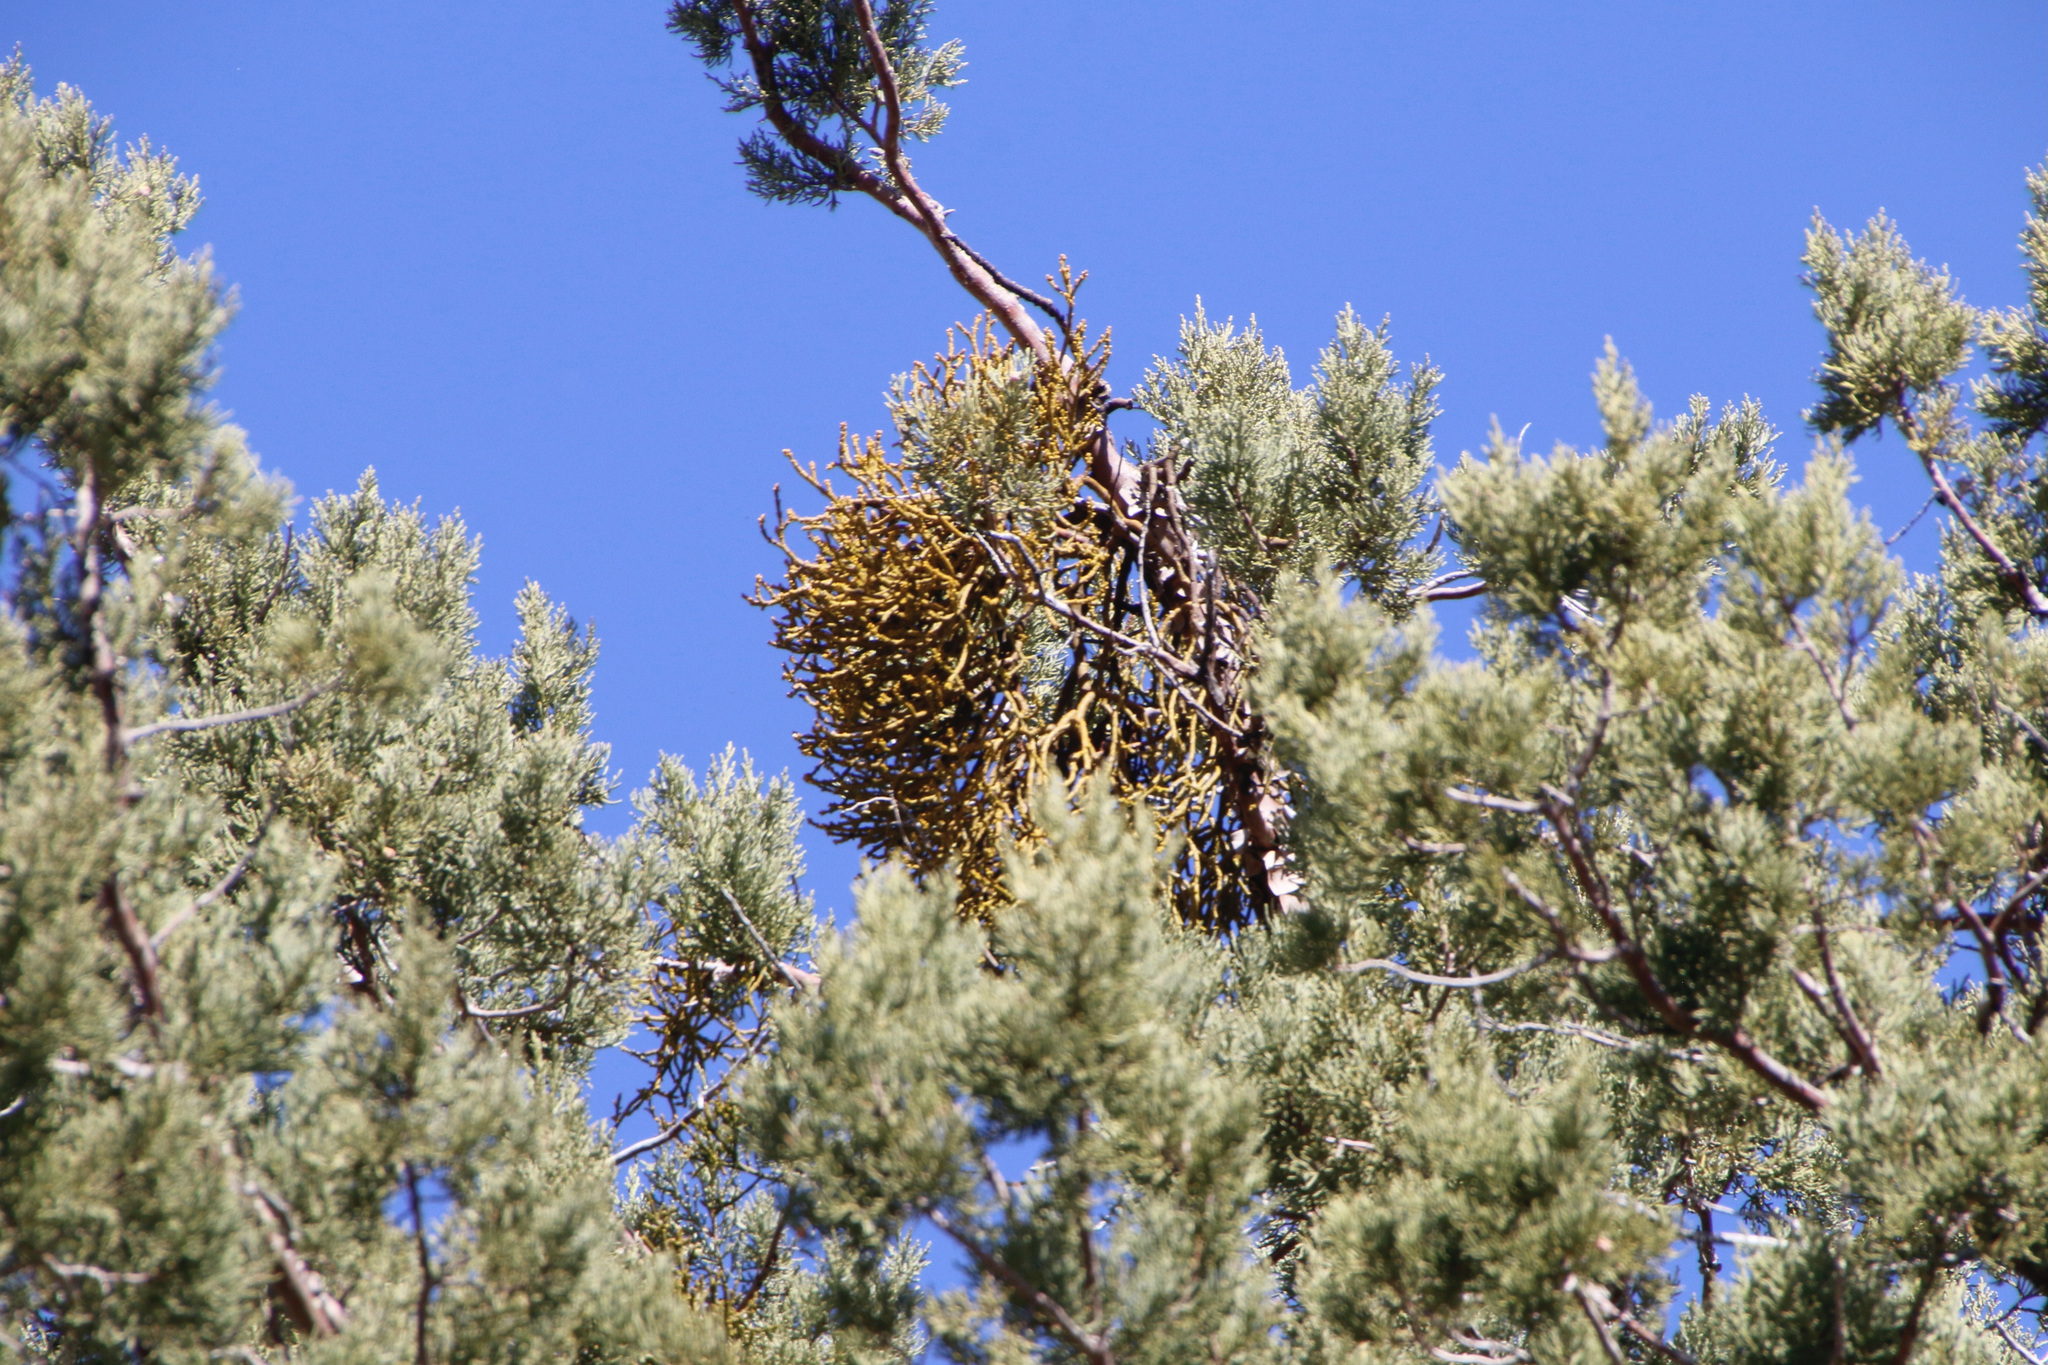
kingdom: Plantae
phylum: Tracheophyta
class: Magnoliopsida
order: Santalales
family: Viscaceae
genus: Phoradendron
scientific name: Phoradendron juniperinum
